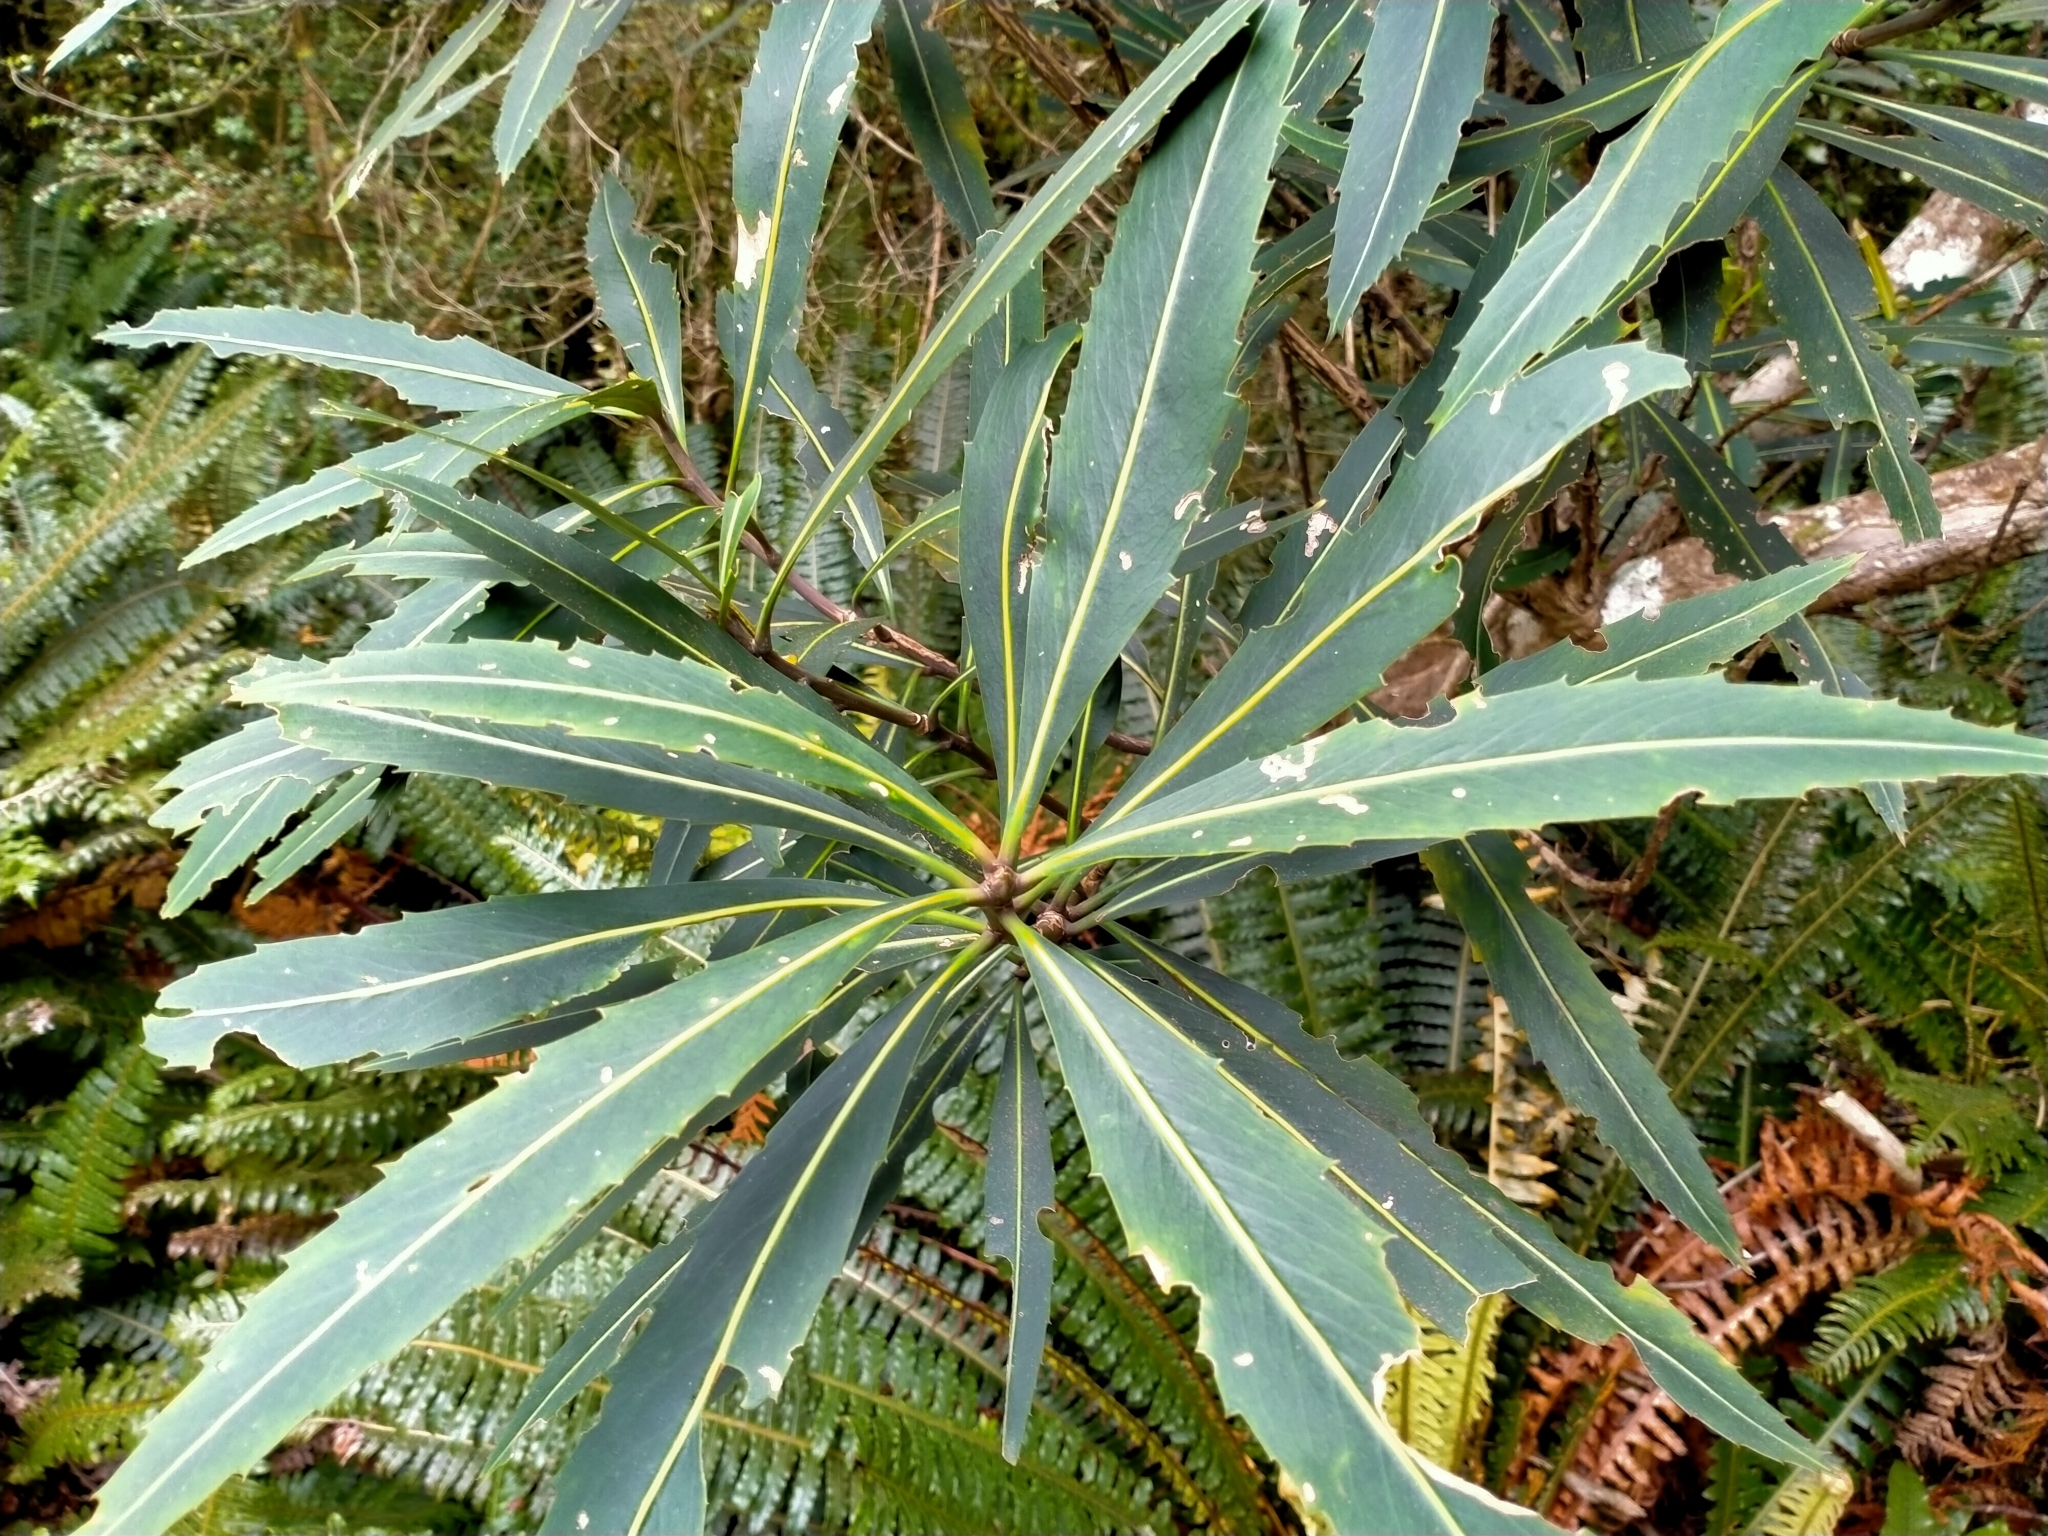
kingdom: Plantae
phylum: Tracheophyta
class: Magnoliopsida
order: Apiales
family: Araliaceae
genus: Pseudopanax
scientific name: Pseudopanax crassifolius
